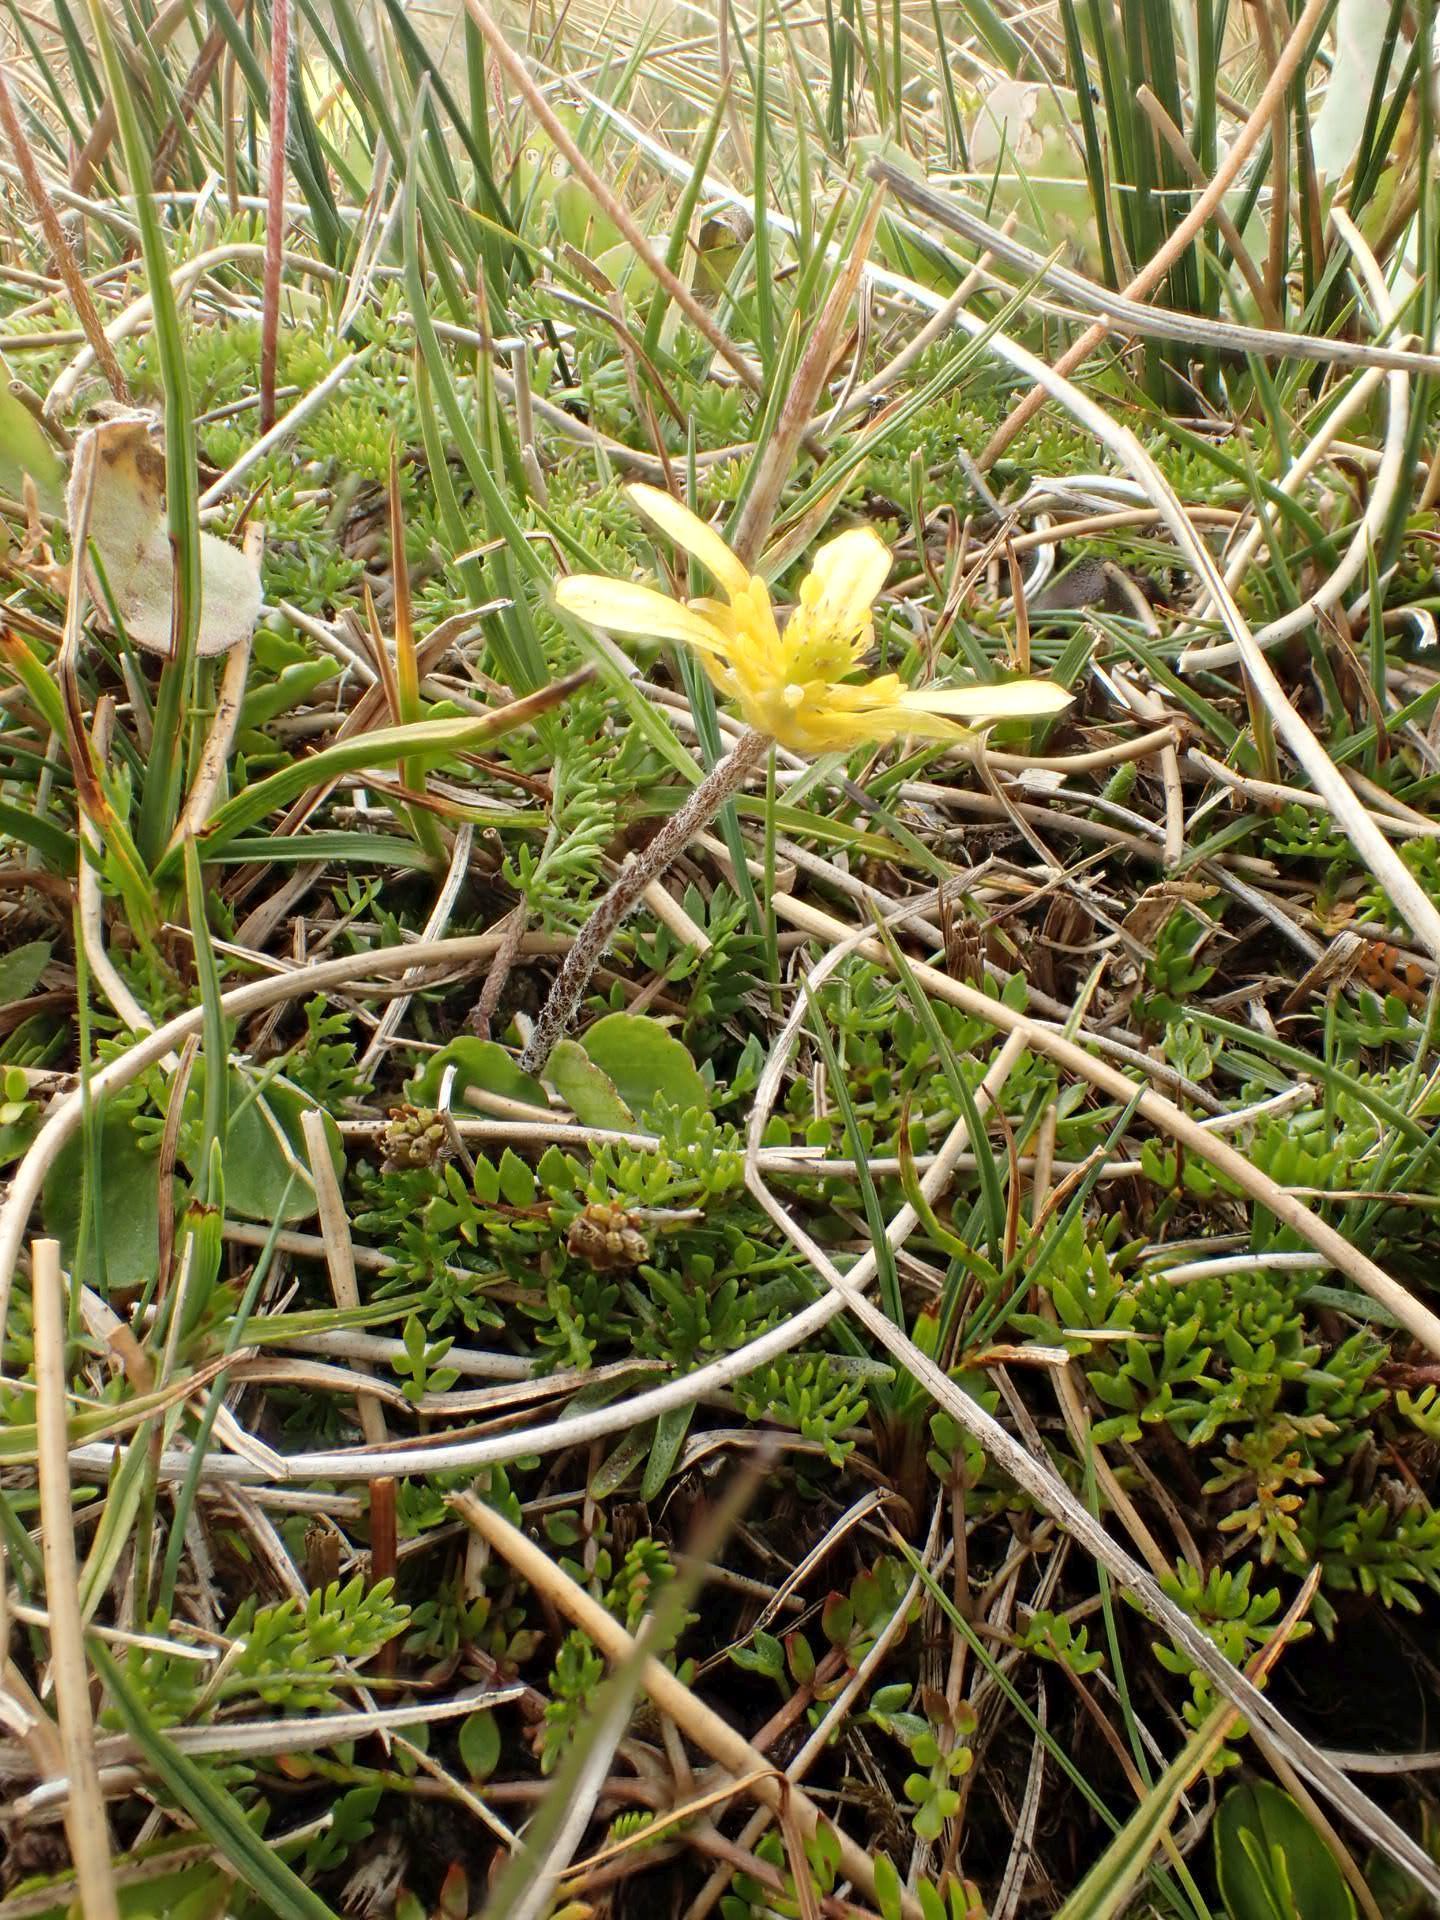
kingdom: Plantae
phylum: Tracheophyta
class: Magnoliopsida
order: Ranunculales
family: Ranunculaceae
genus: Ranunculus
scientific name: Ranunculus gracilipes
